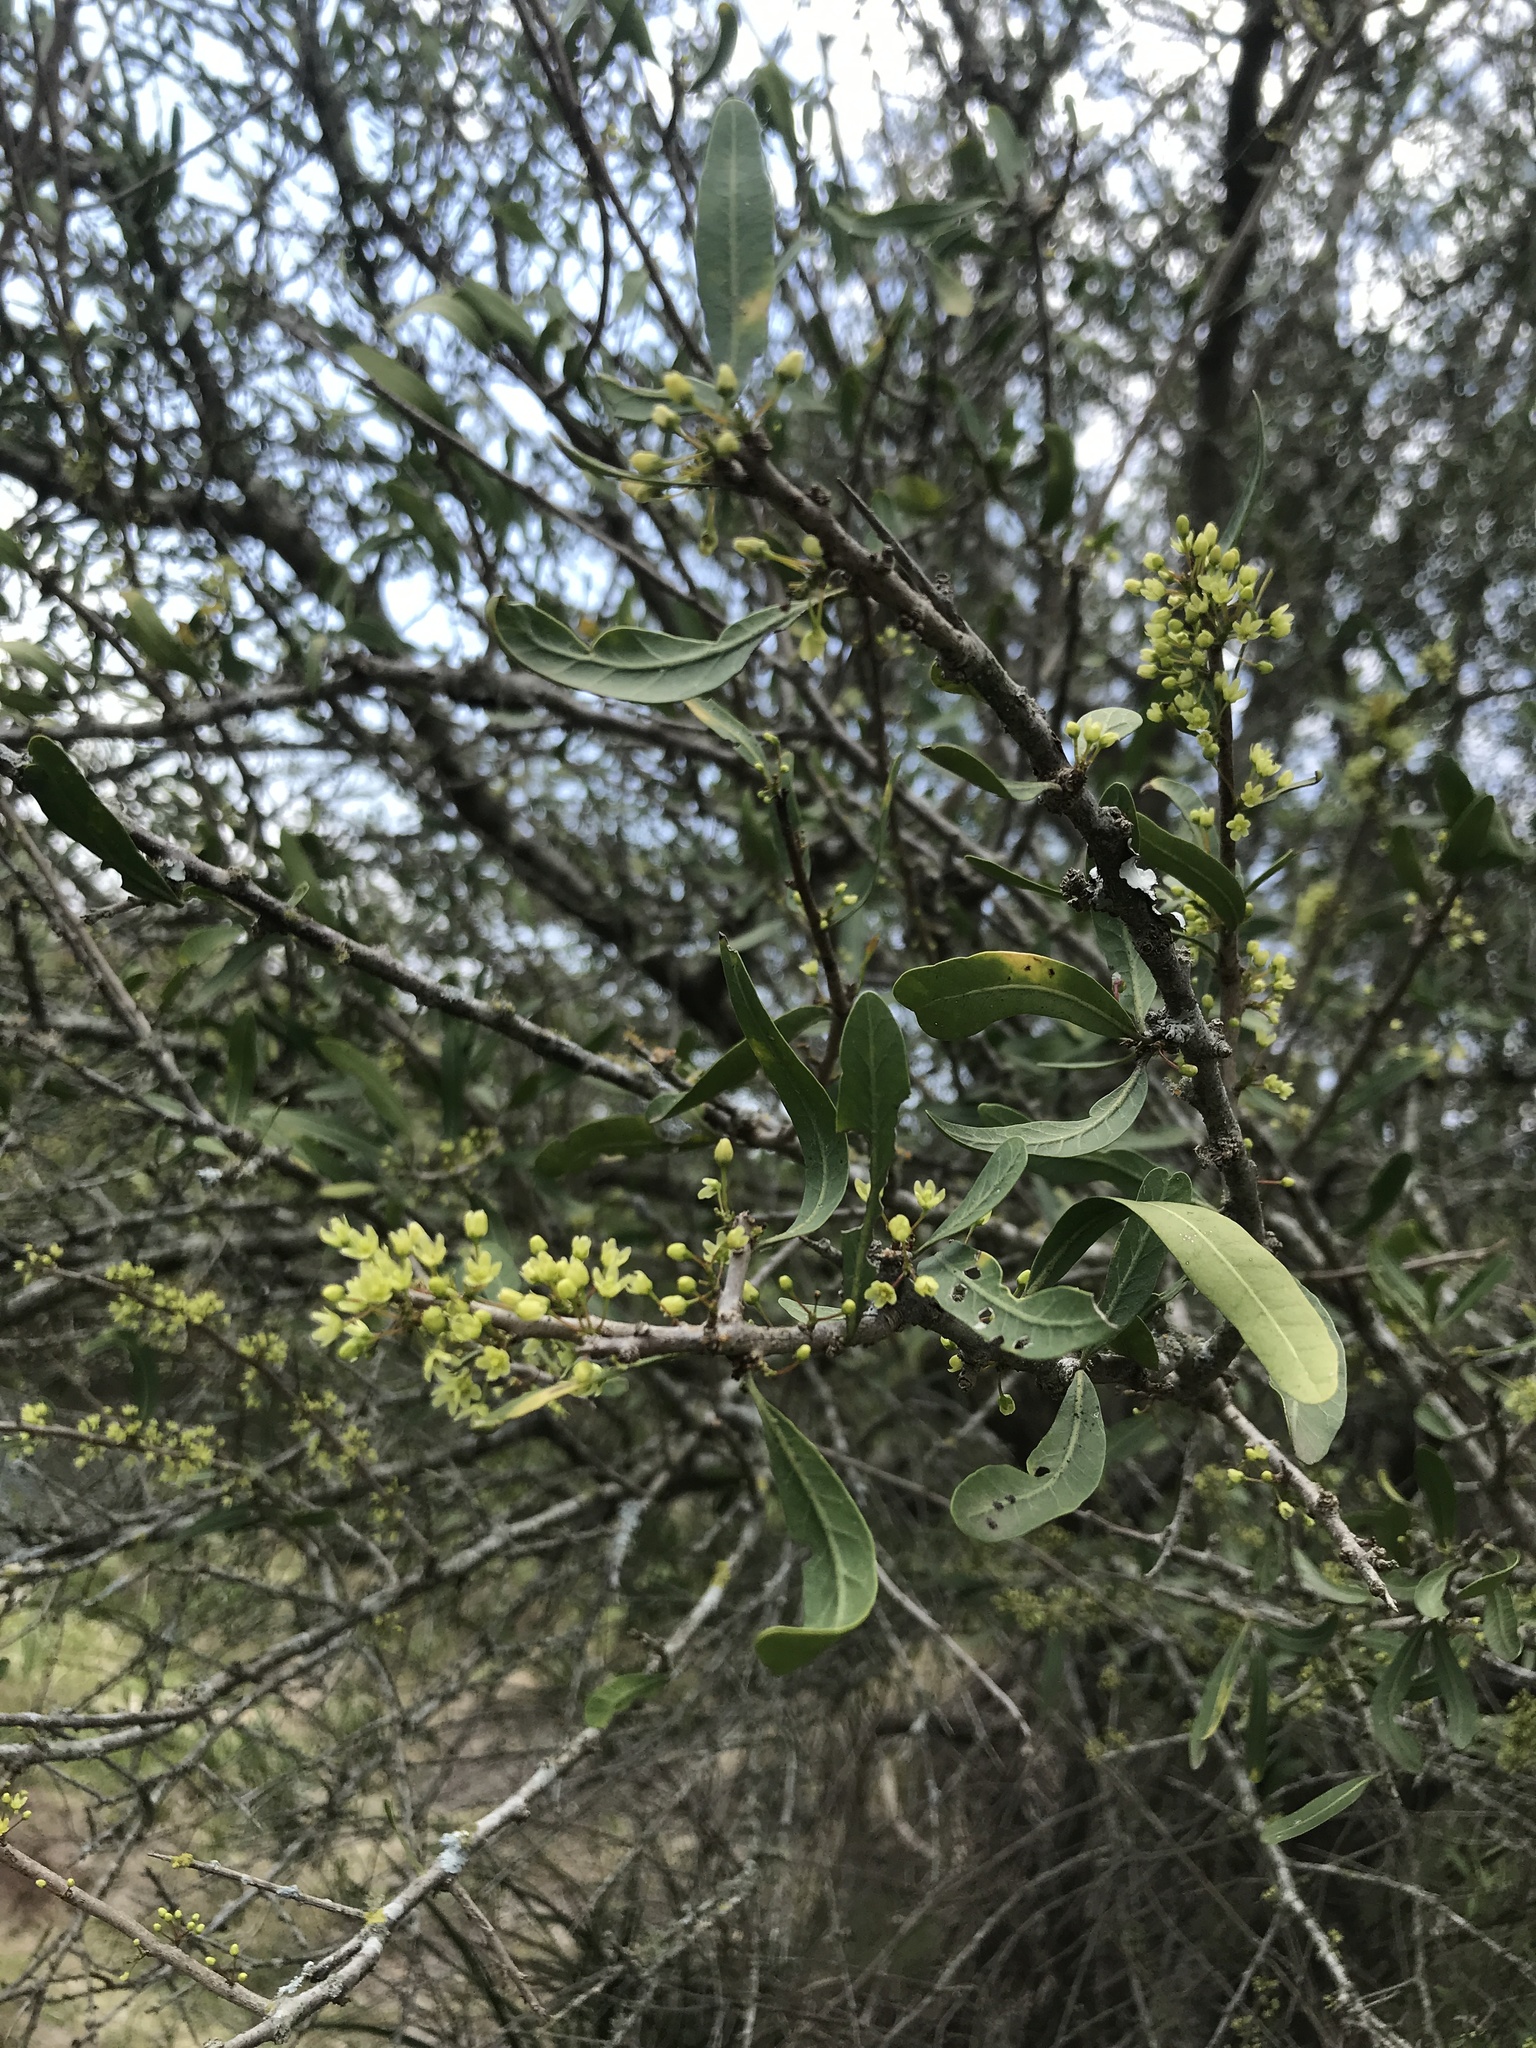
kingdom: Plantae
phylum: Tracheophyta
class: Magnoliopsida
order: Sapindales
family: Anacardiaceae
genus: Schinus
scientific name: Schinus longifolia
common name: Longleaf peppertree
